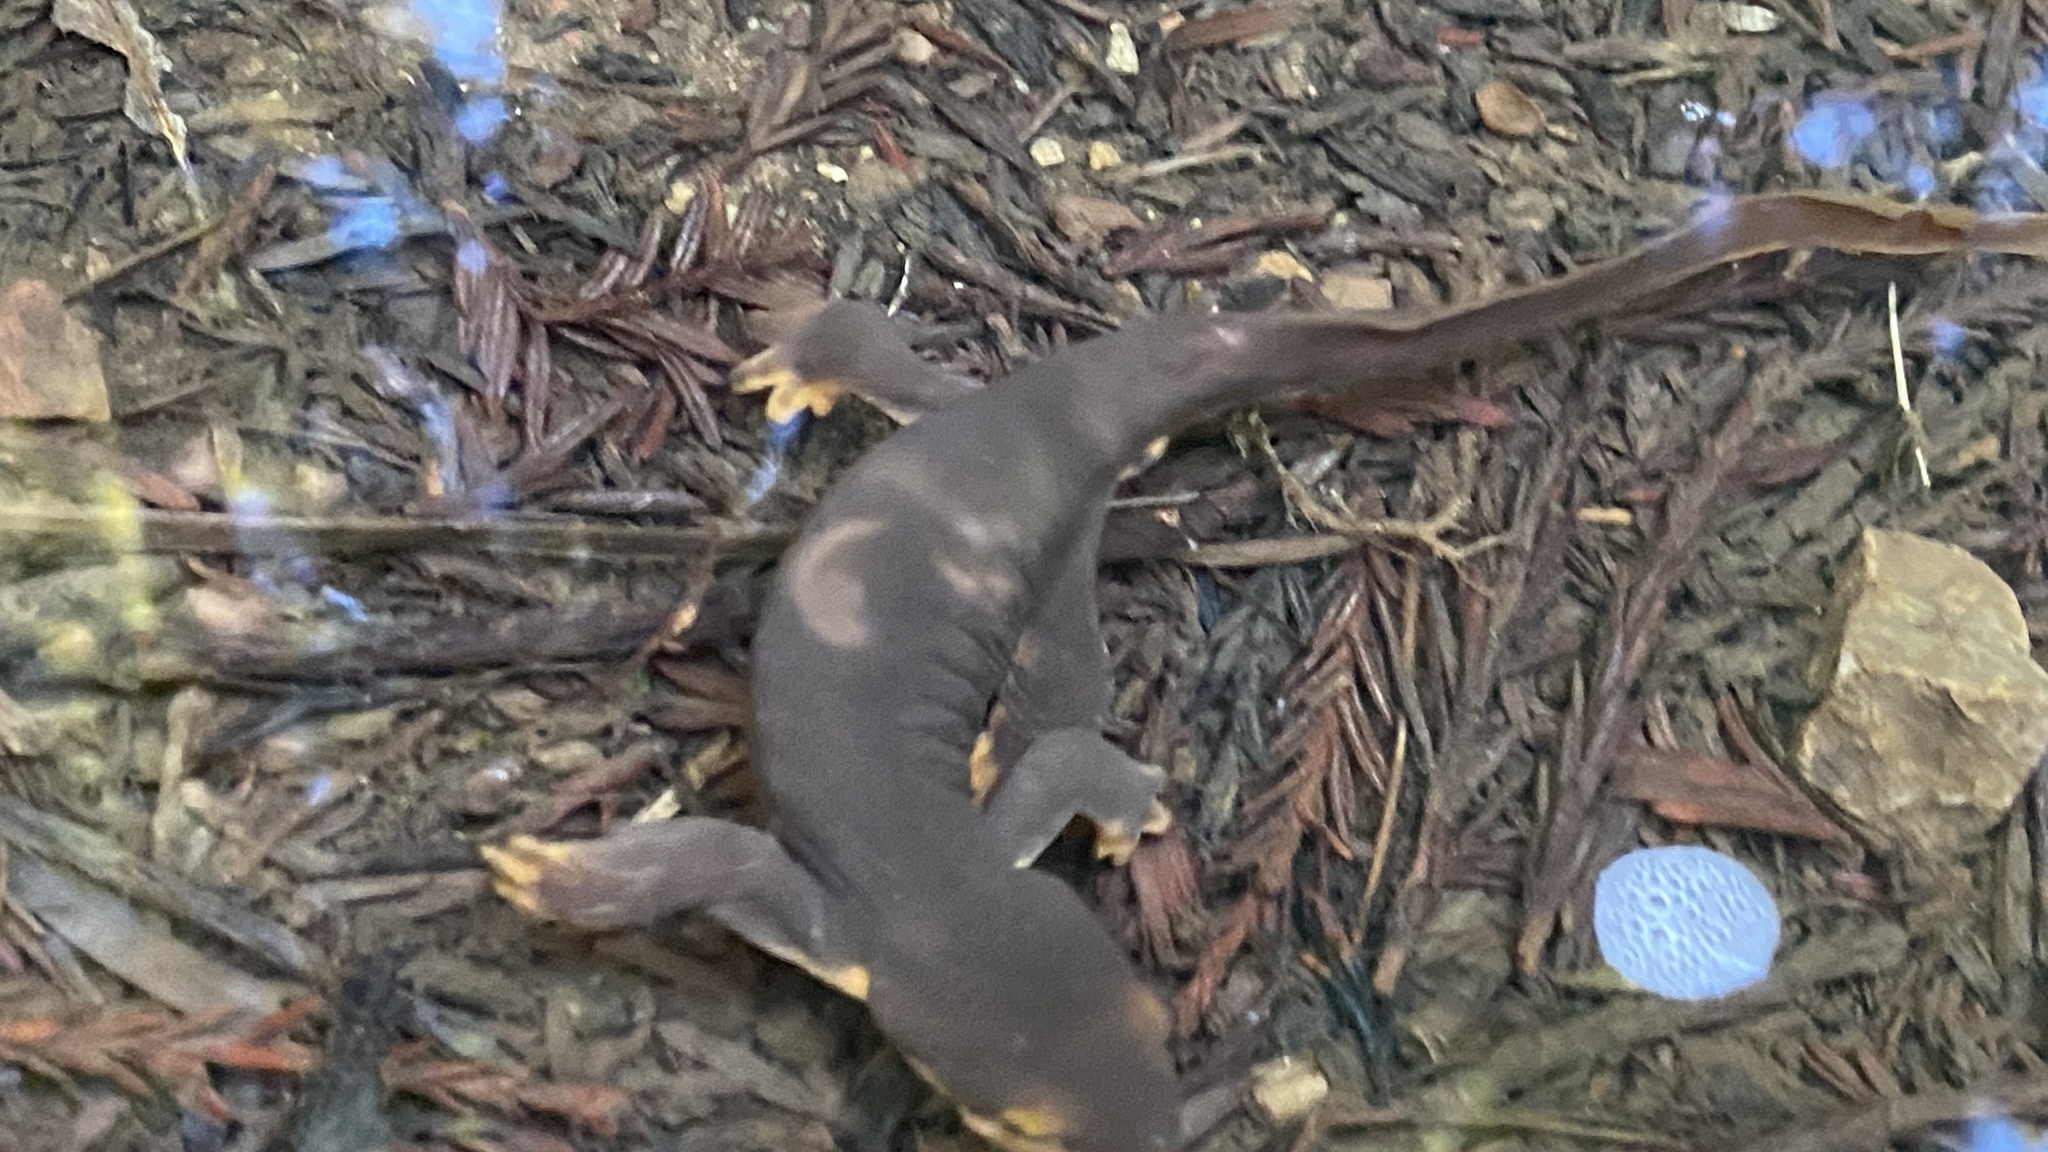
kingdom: Animalia
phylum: Chordata
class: Amphibia
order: Caudata
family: Salamandridae
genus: Taricha
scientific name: Taricha torosa
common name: California newt
